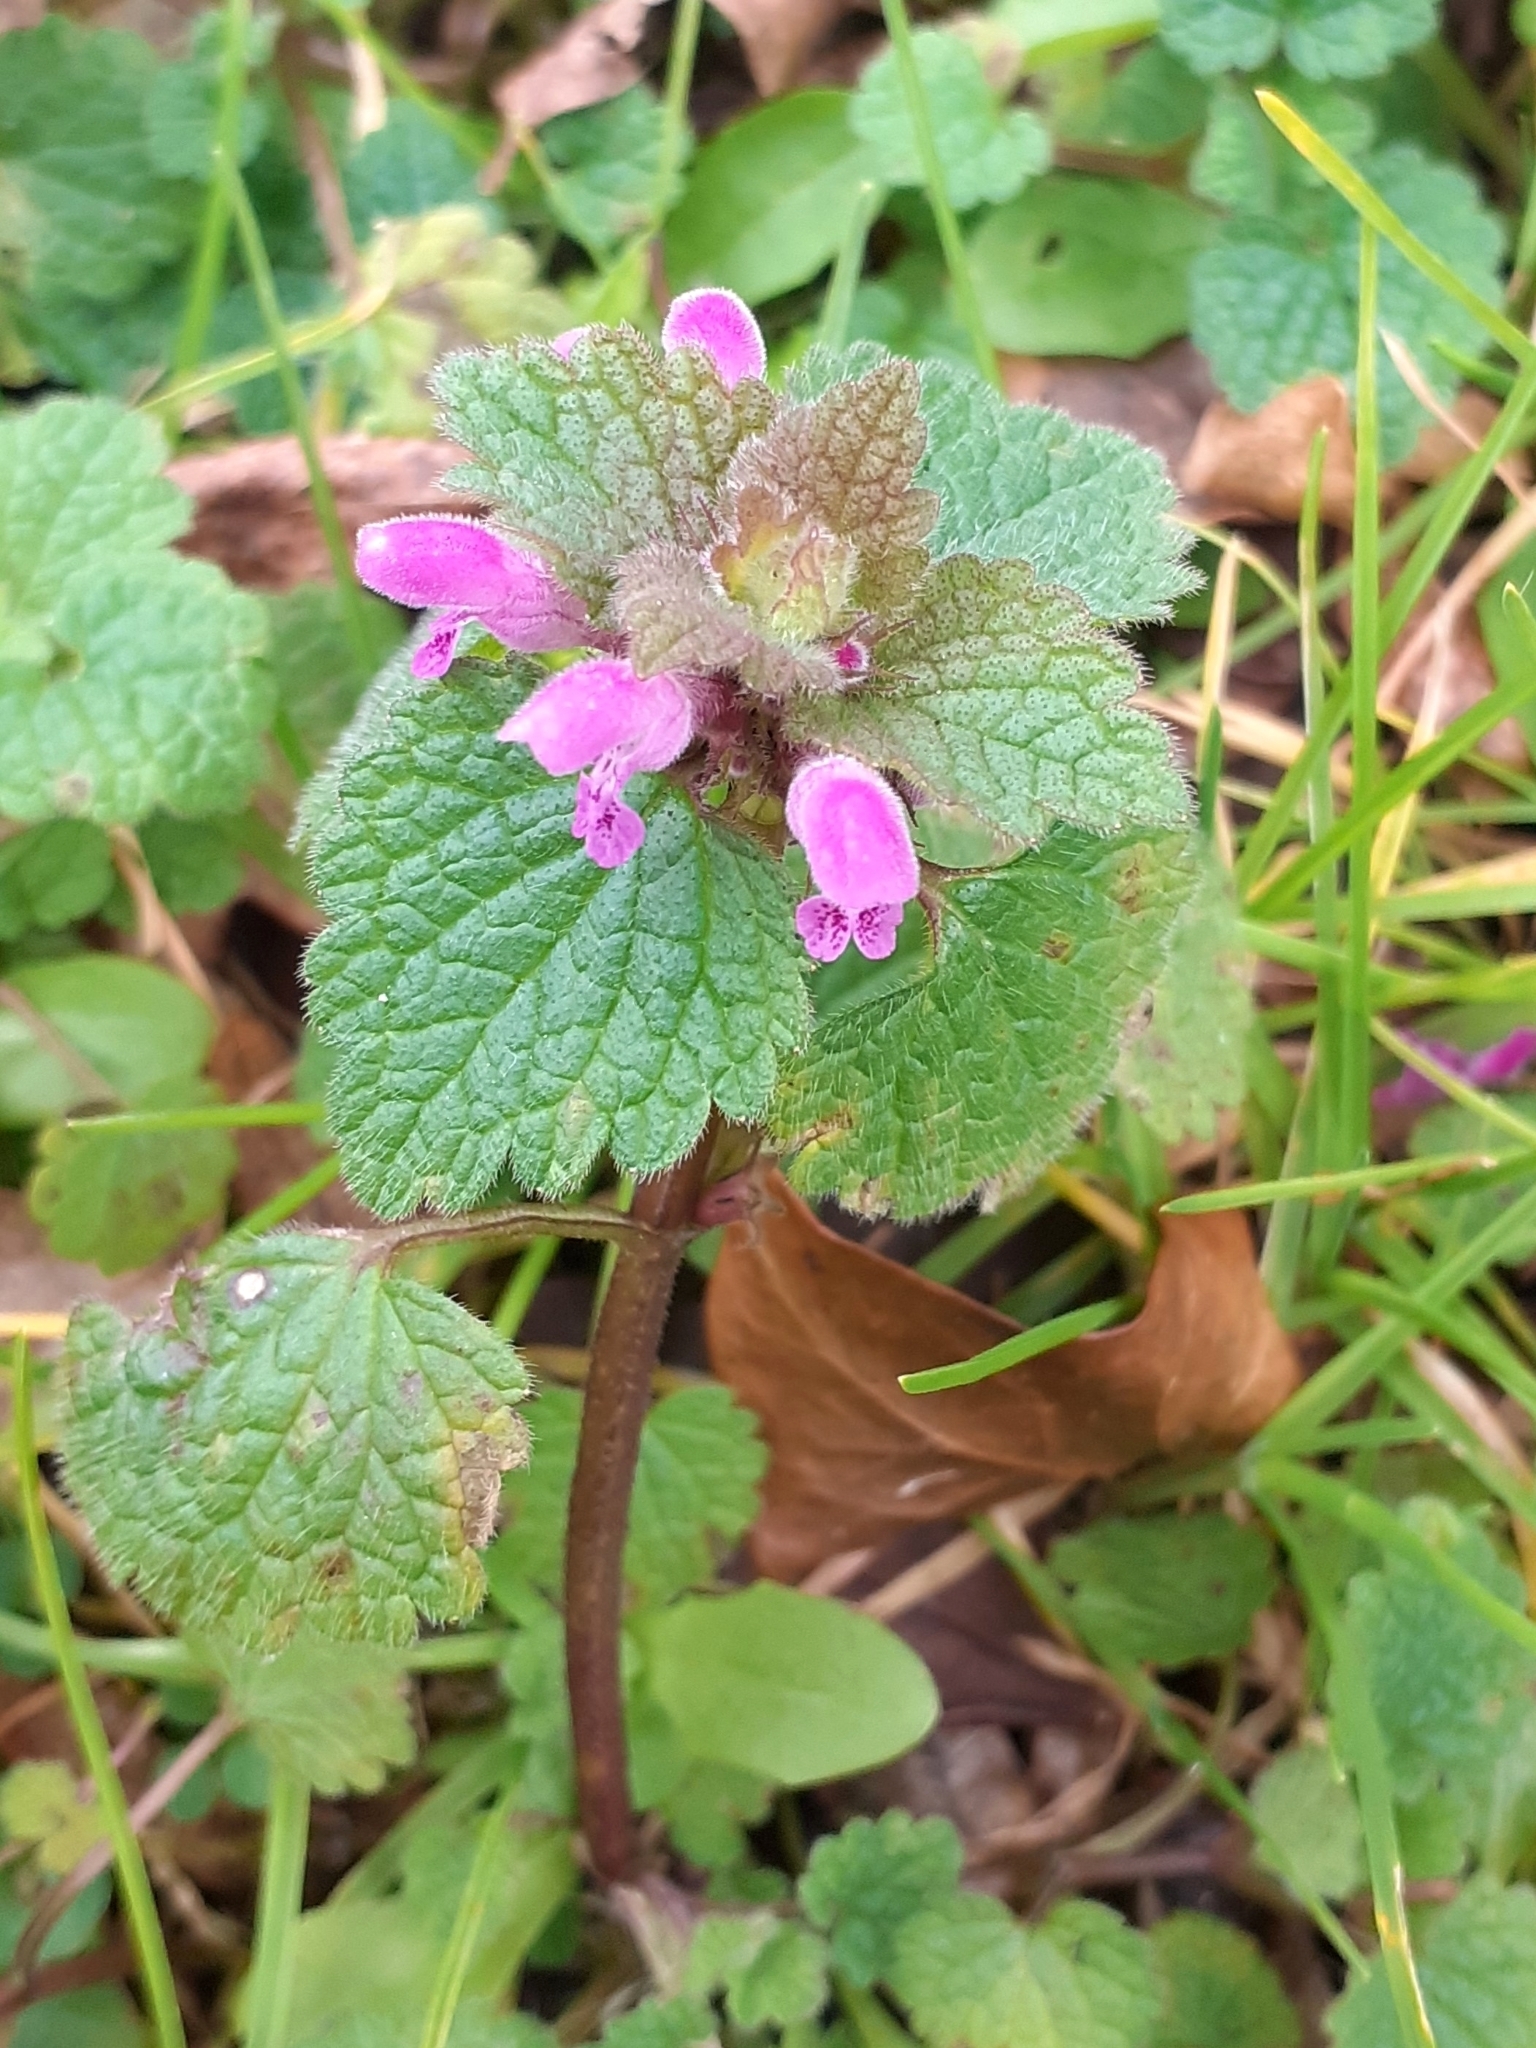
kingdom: Plantae
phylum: Tracheophyta
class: Magnoliopsida
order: Lamiales
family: Lamiaceae
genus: Lamium
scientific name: Lamium purpureum
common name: Red dead-nettle
